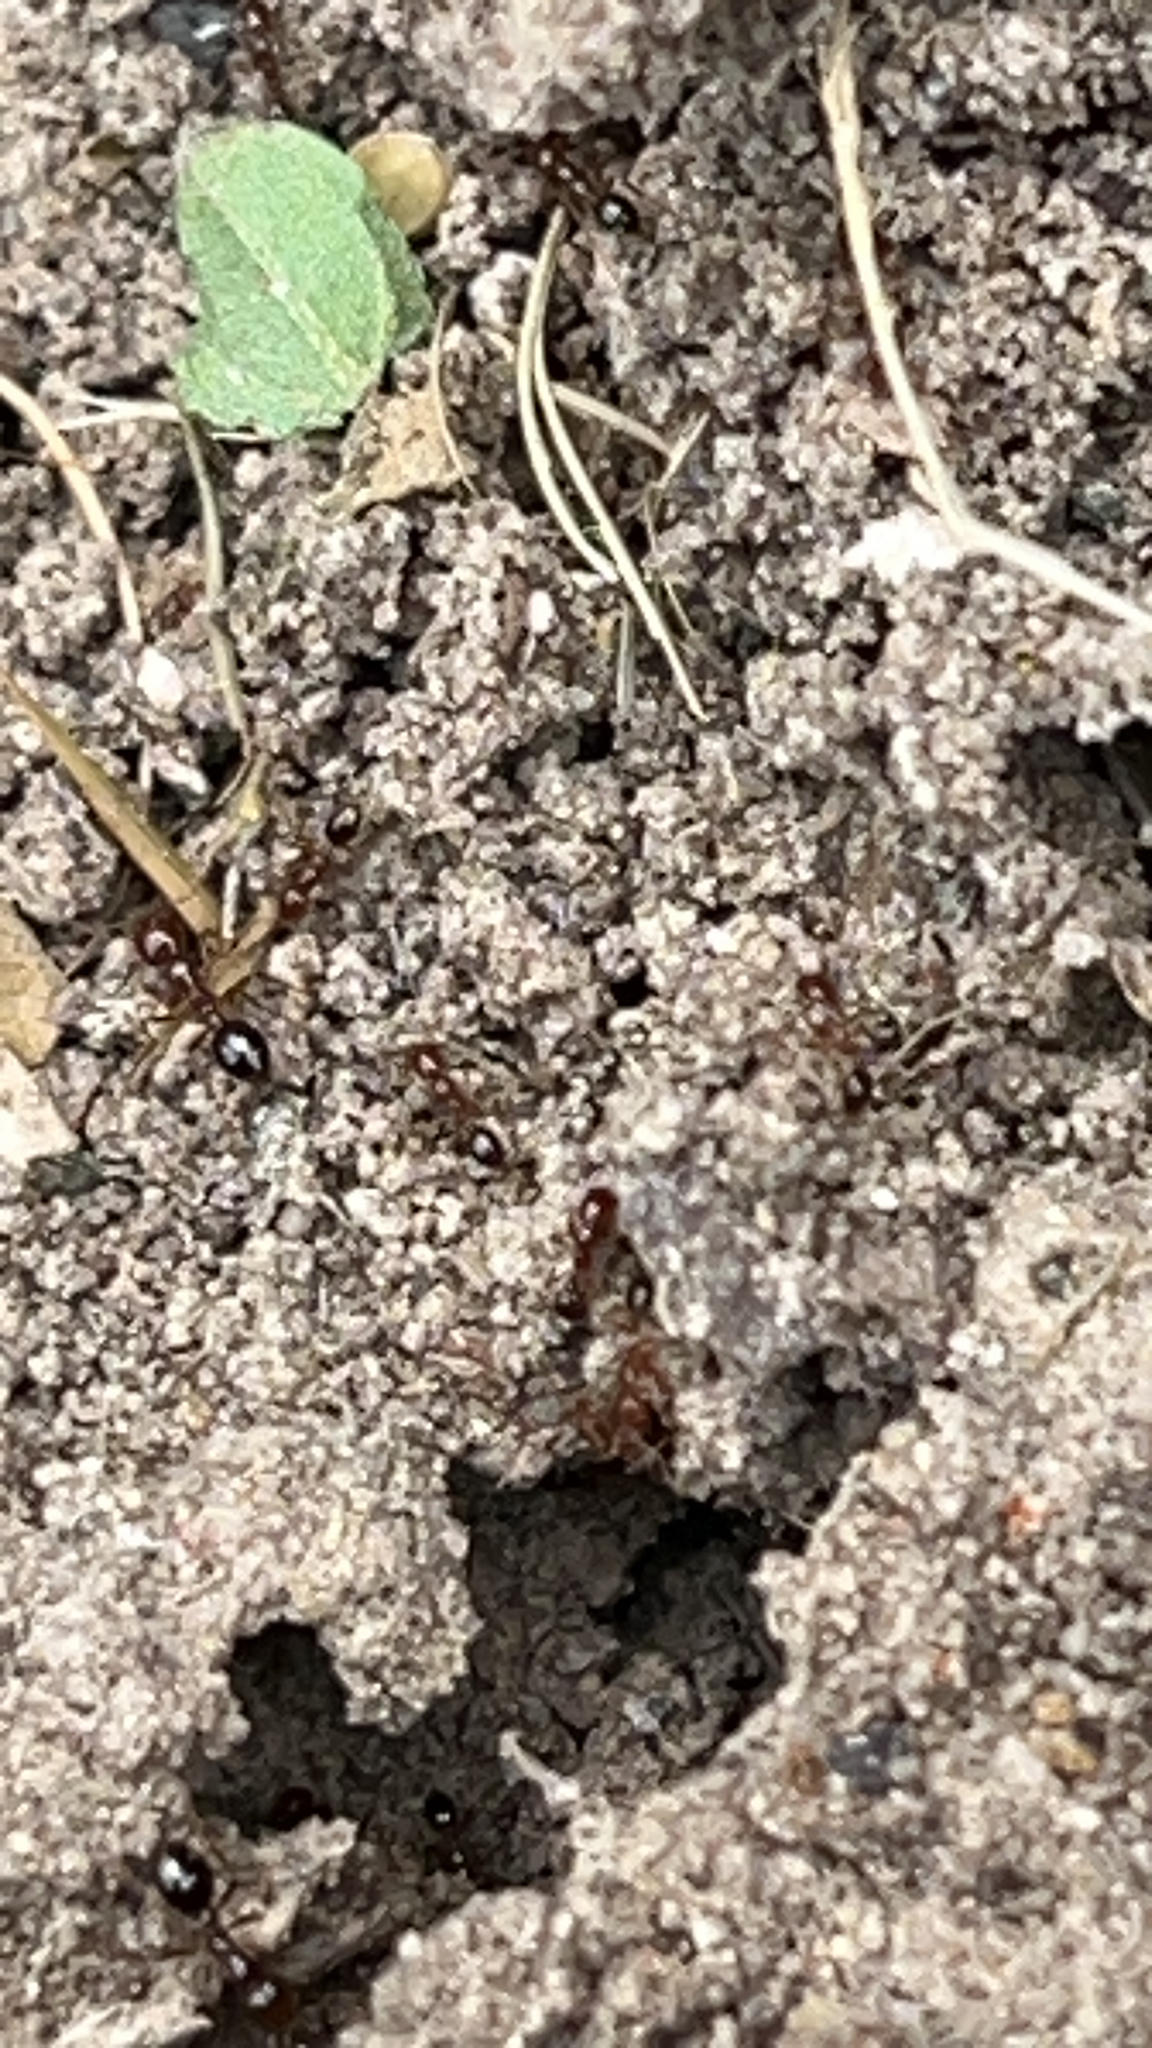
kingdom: Animalia
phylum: Arthropoda
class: Insecta
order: Hymenoptera
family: Formicidae
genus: Solenopsis
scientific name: Solenopsis invicta
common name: Red imported fire ant
